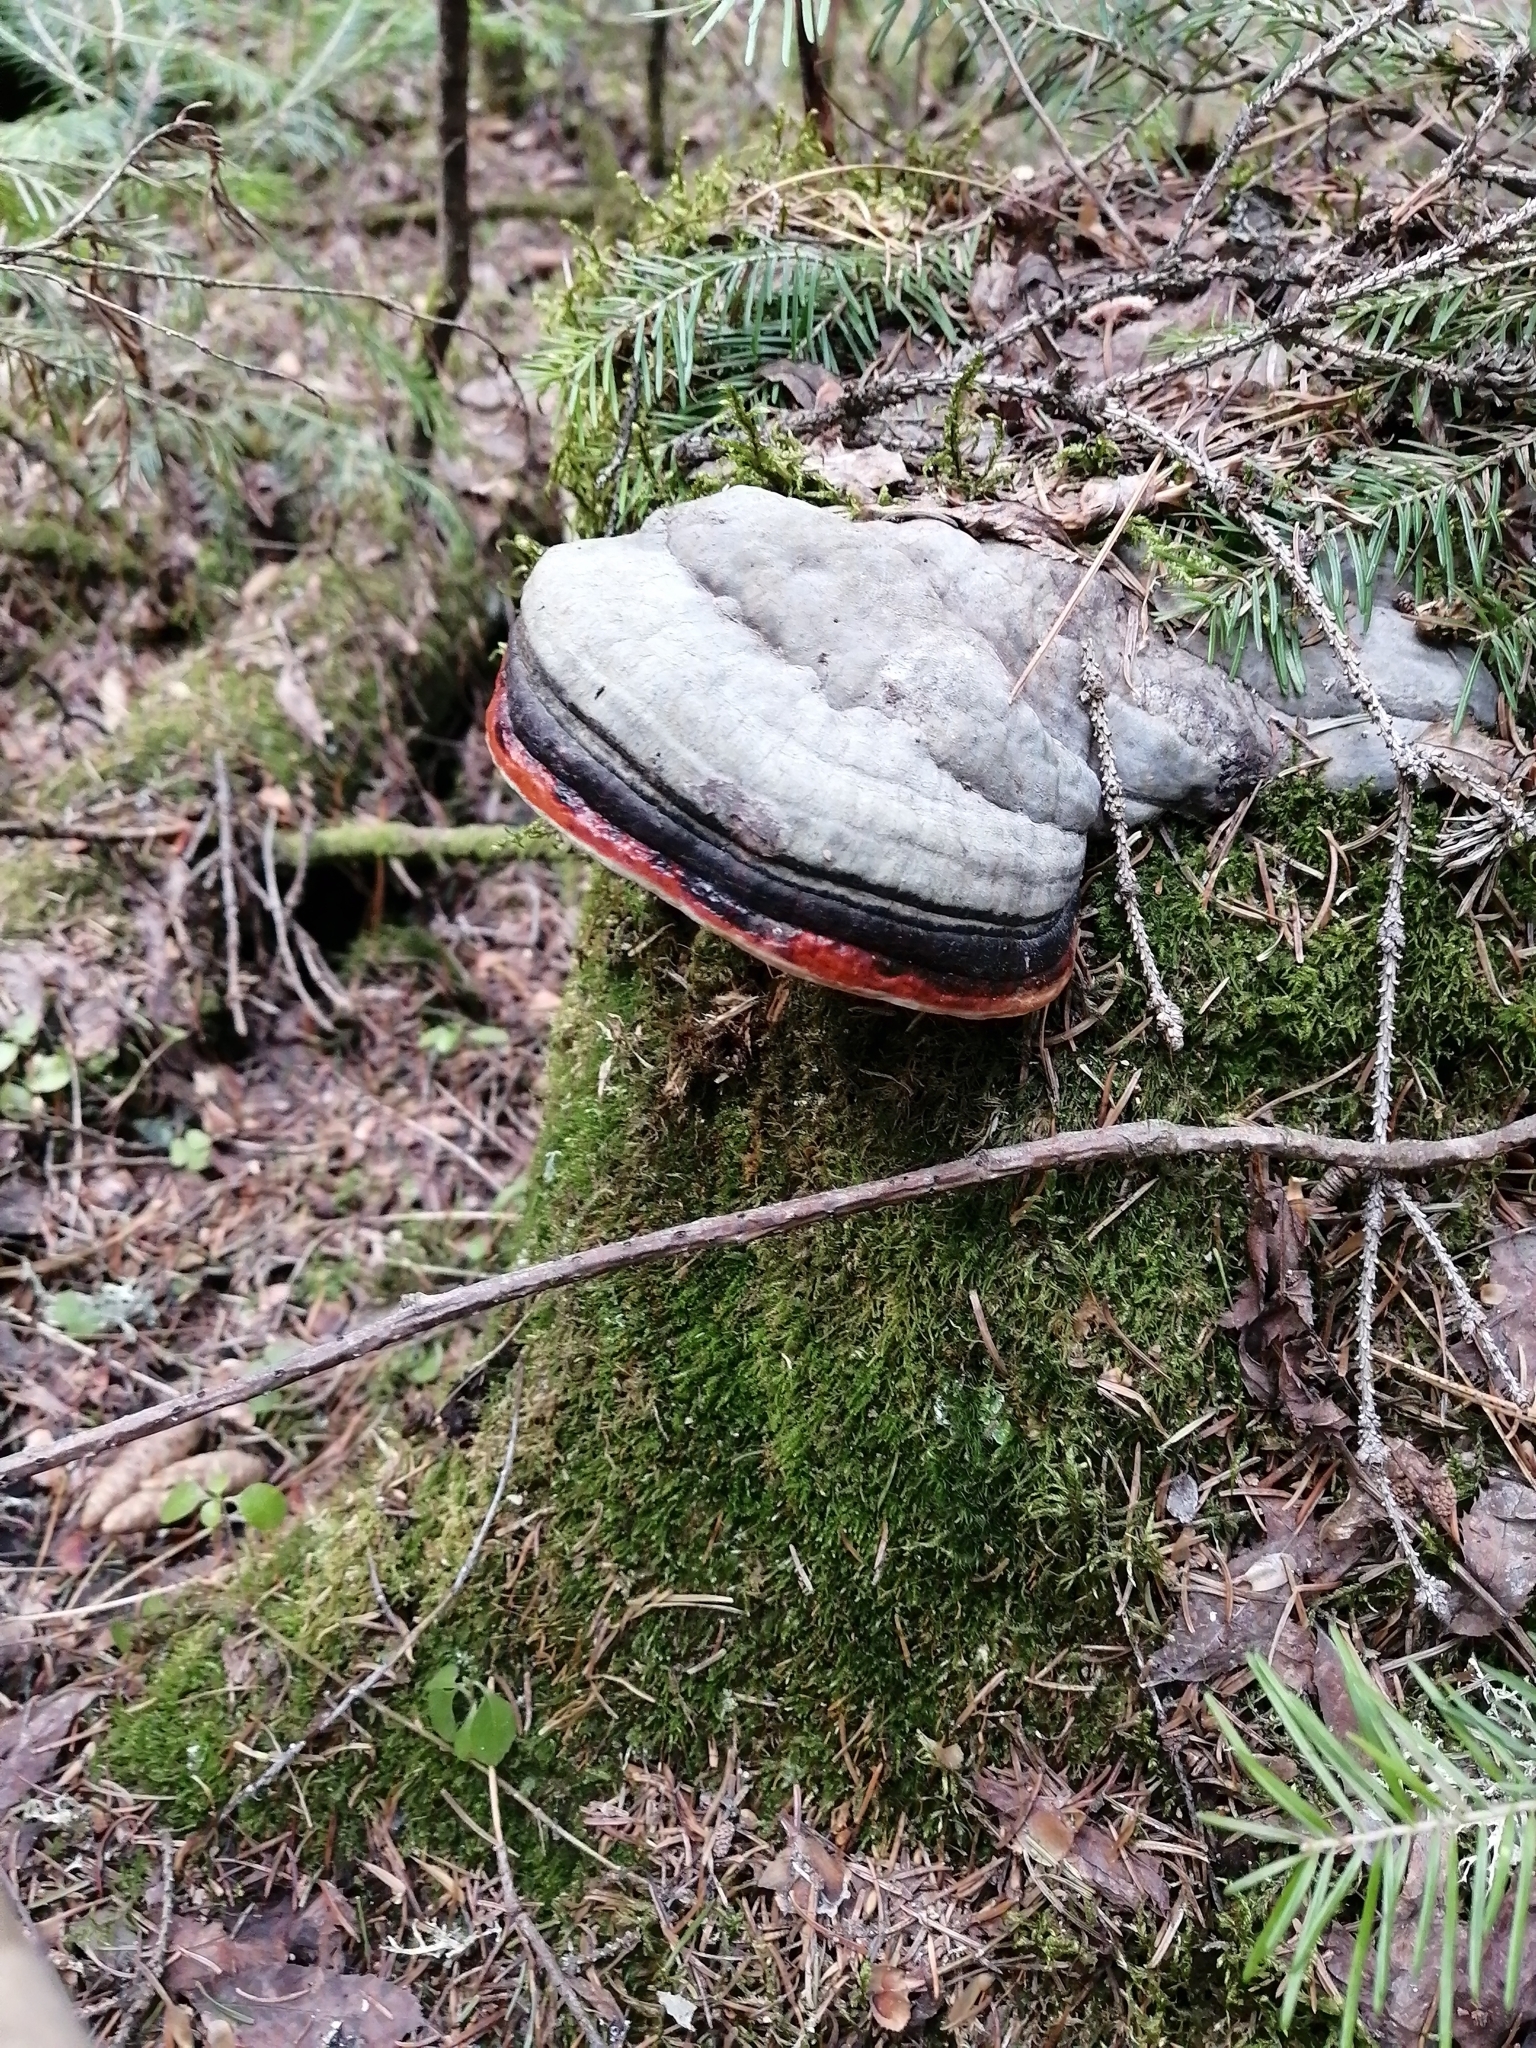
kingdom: Fungi
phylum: Basidiomycota
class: Agaricomycetes
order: Polyporales
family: Fomitopsidaceae
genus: Fomitopsis
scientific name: Fomitopsis pinicola
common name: Red-belted bracket
